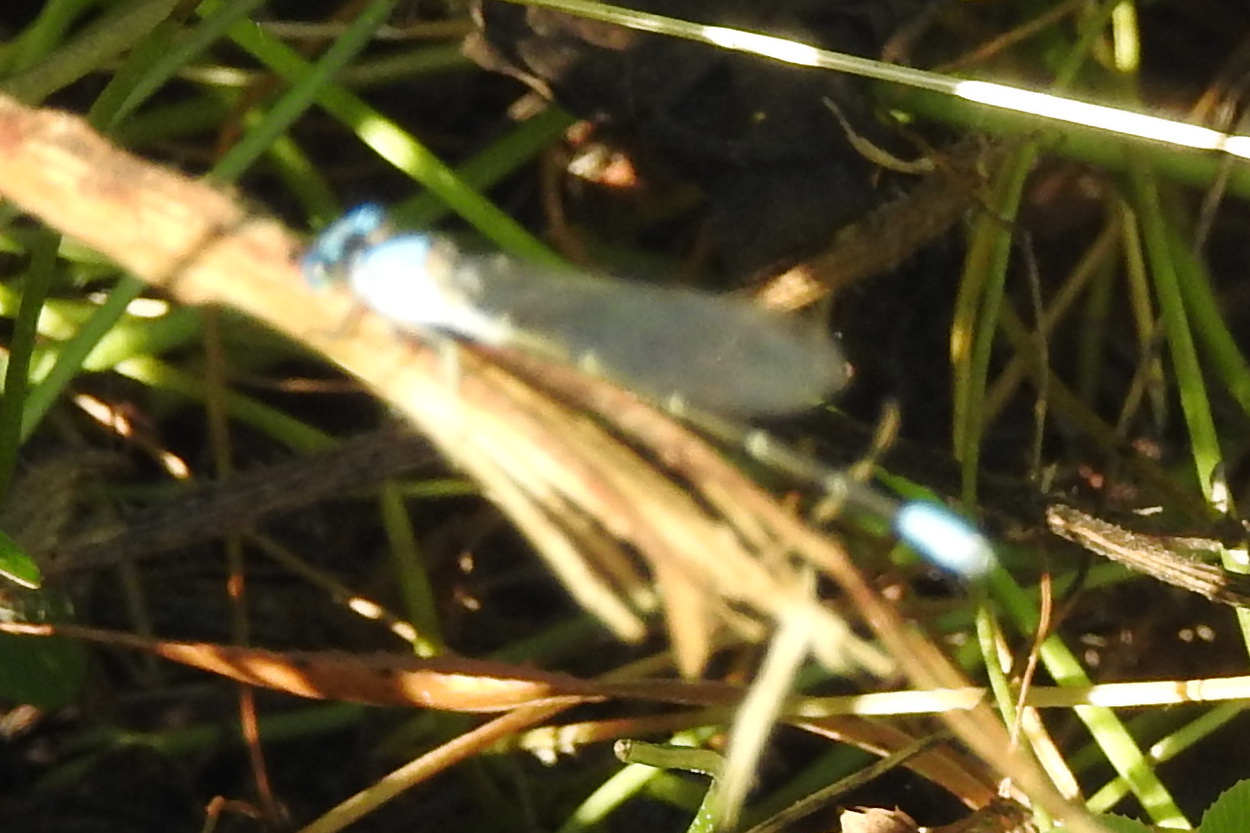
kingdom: Animalia
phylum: Arthropoda
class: Insecta
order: Odonata
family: Coenagrionidae
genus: Argia
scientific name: Argia apicalis
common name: Blue-fronted dancer
